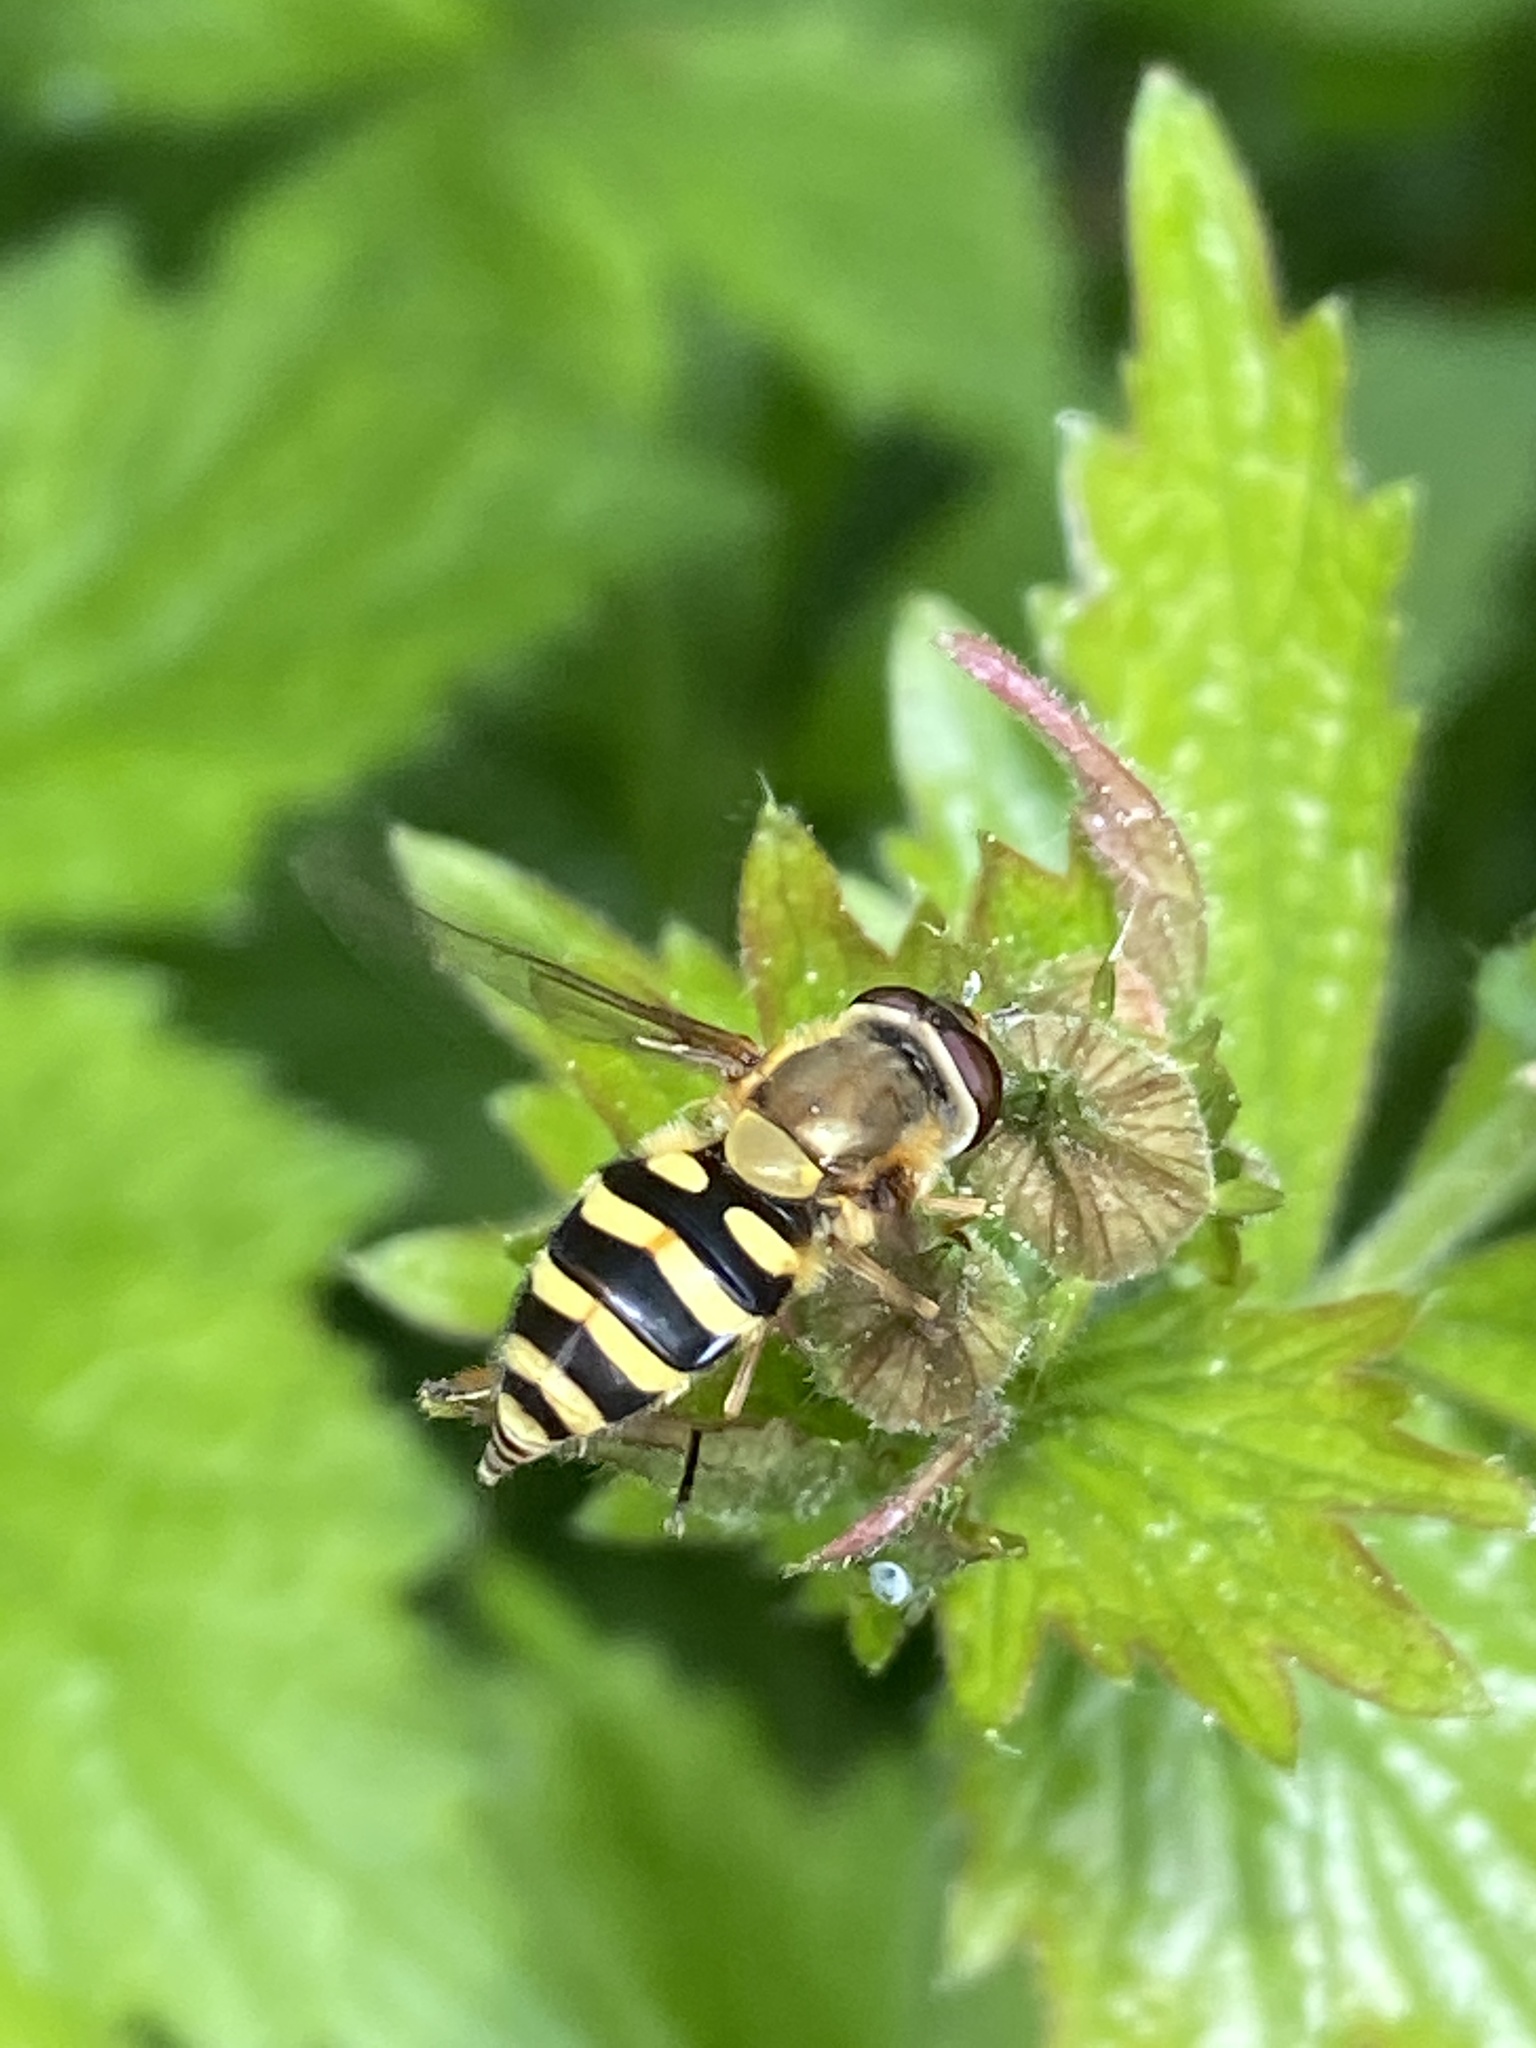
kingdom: Animalia
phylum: Arthropoda
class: Insecta
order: Diptera
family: Syrphidae
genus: Syrphus
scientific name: Syrphus
